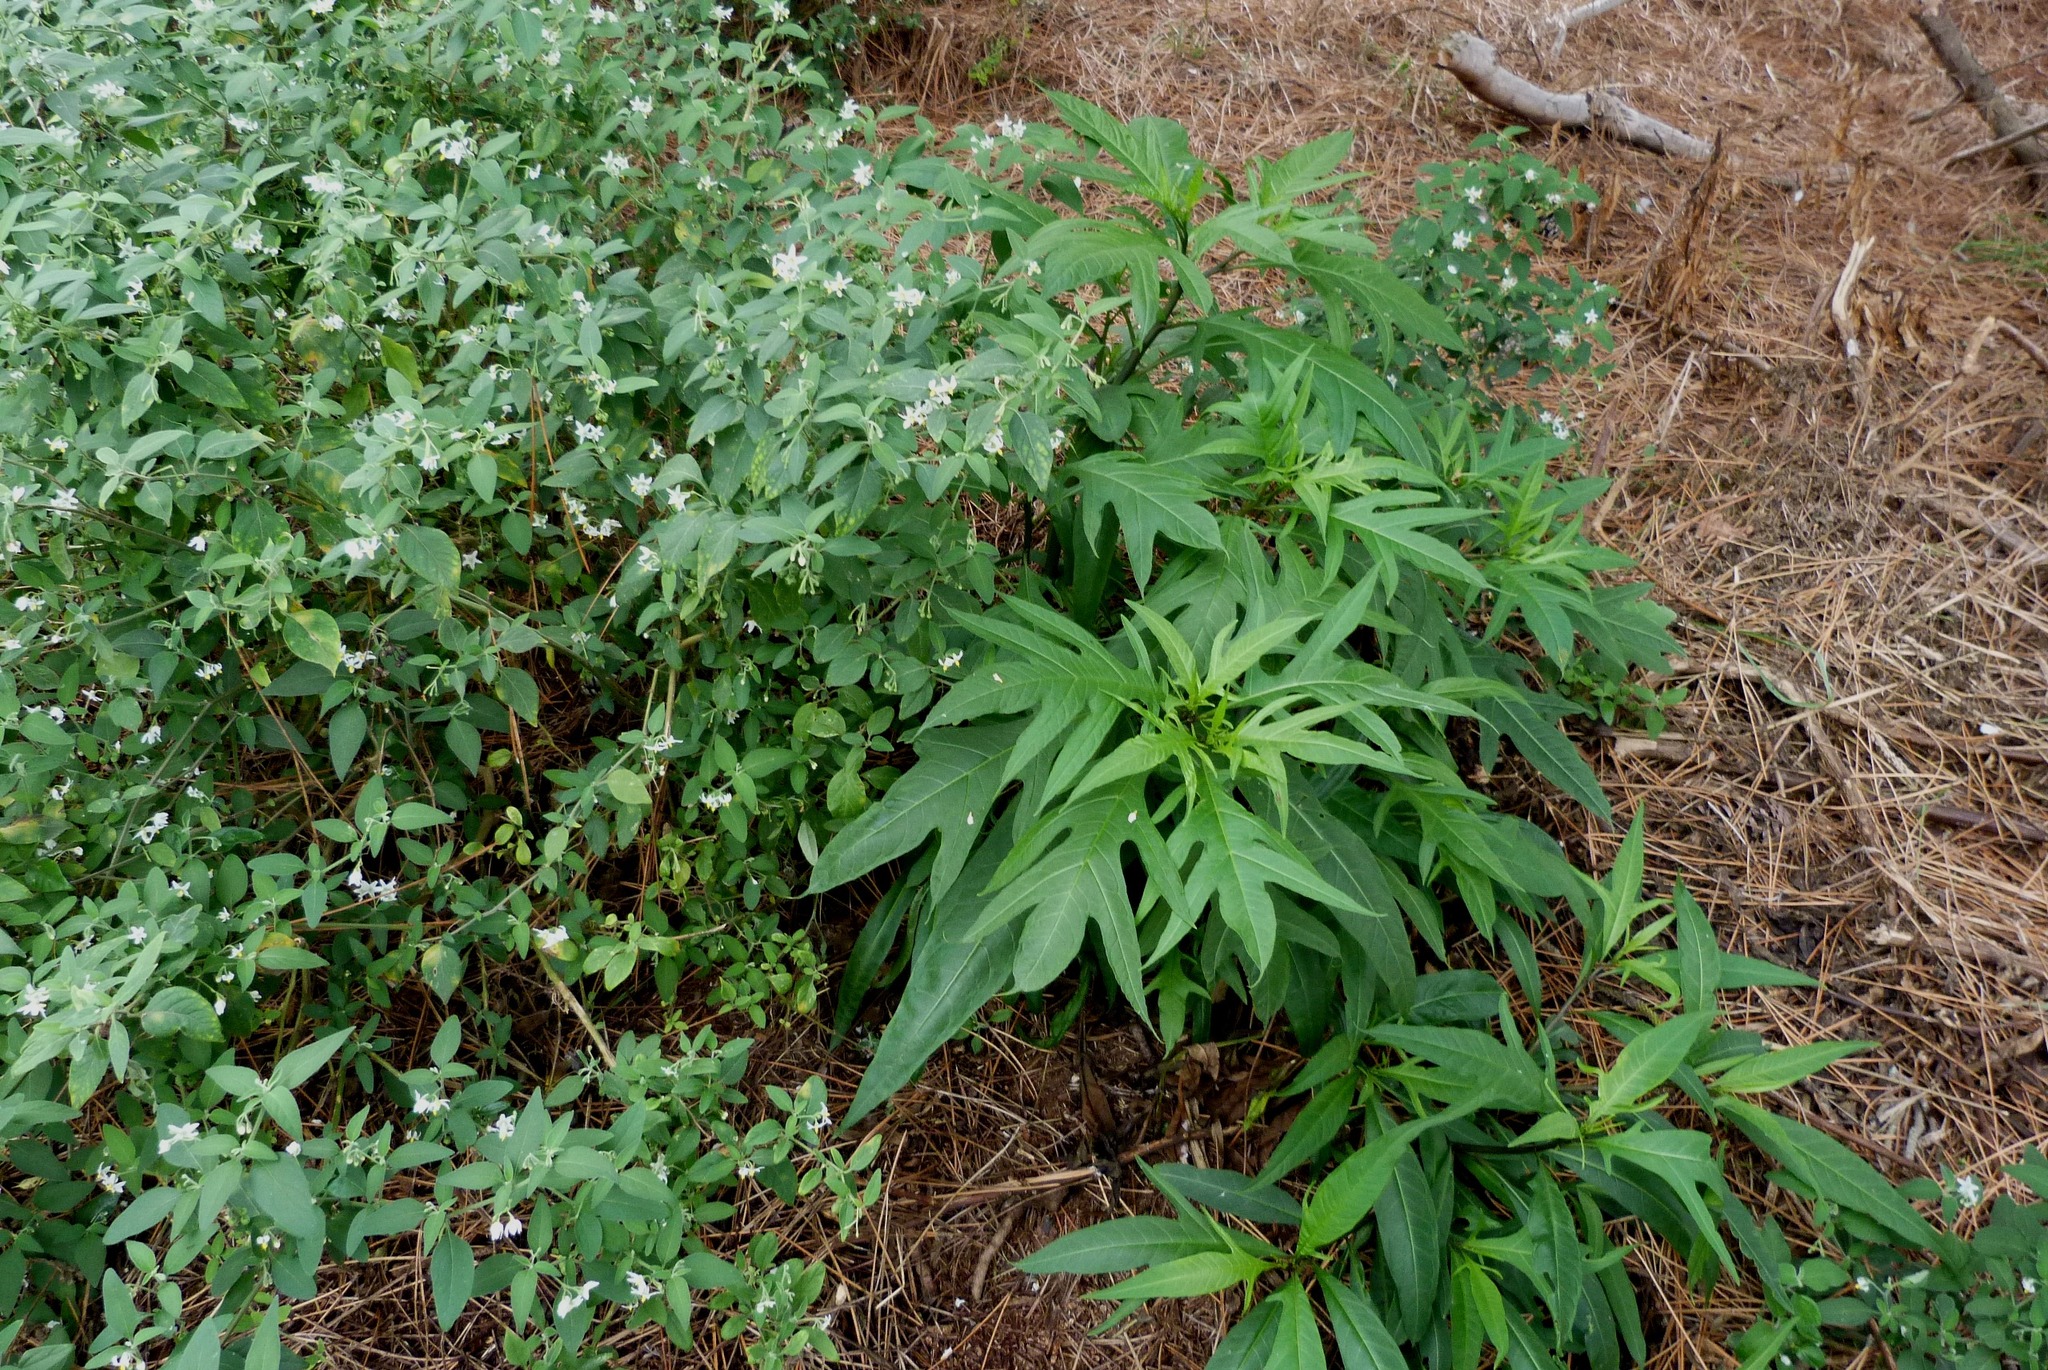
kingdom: Plantae
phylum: Tracheophyta
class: Magnoliopsida
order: Solanales
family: Solanaceae
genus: Solanum
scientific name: Solanum laciniatum
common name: Kangaroo-apple
